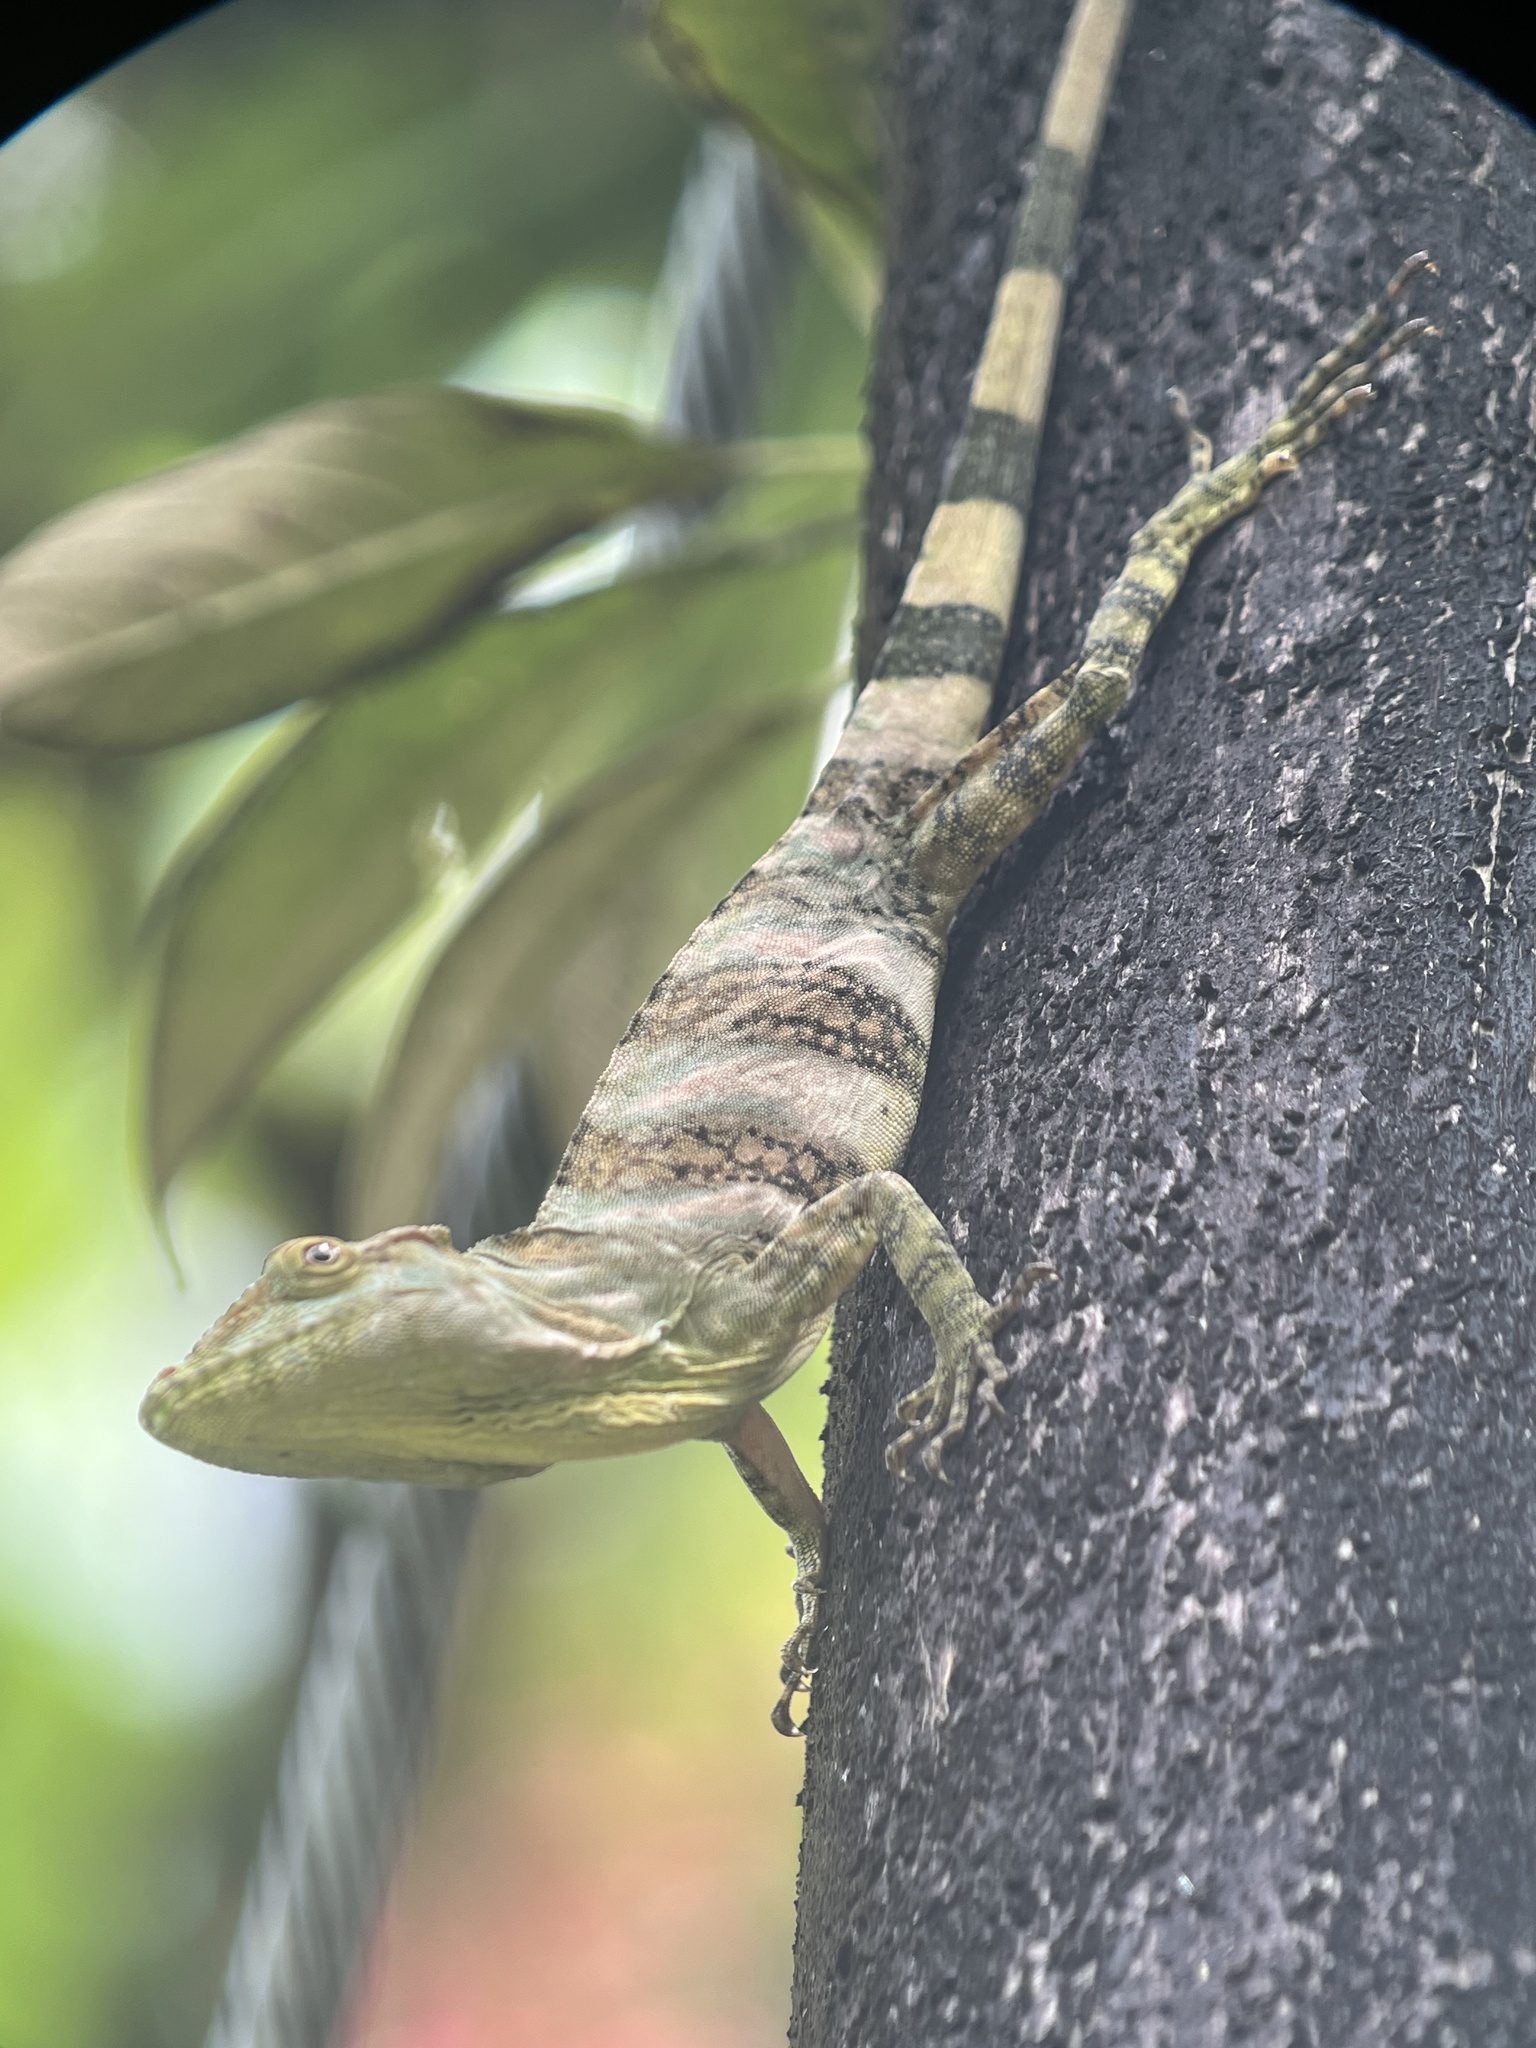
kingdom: Animalia
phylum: Chordata
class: Squamata
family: Dactyloidae
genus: Anolis
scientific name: Anolis kathydayae
